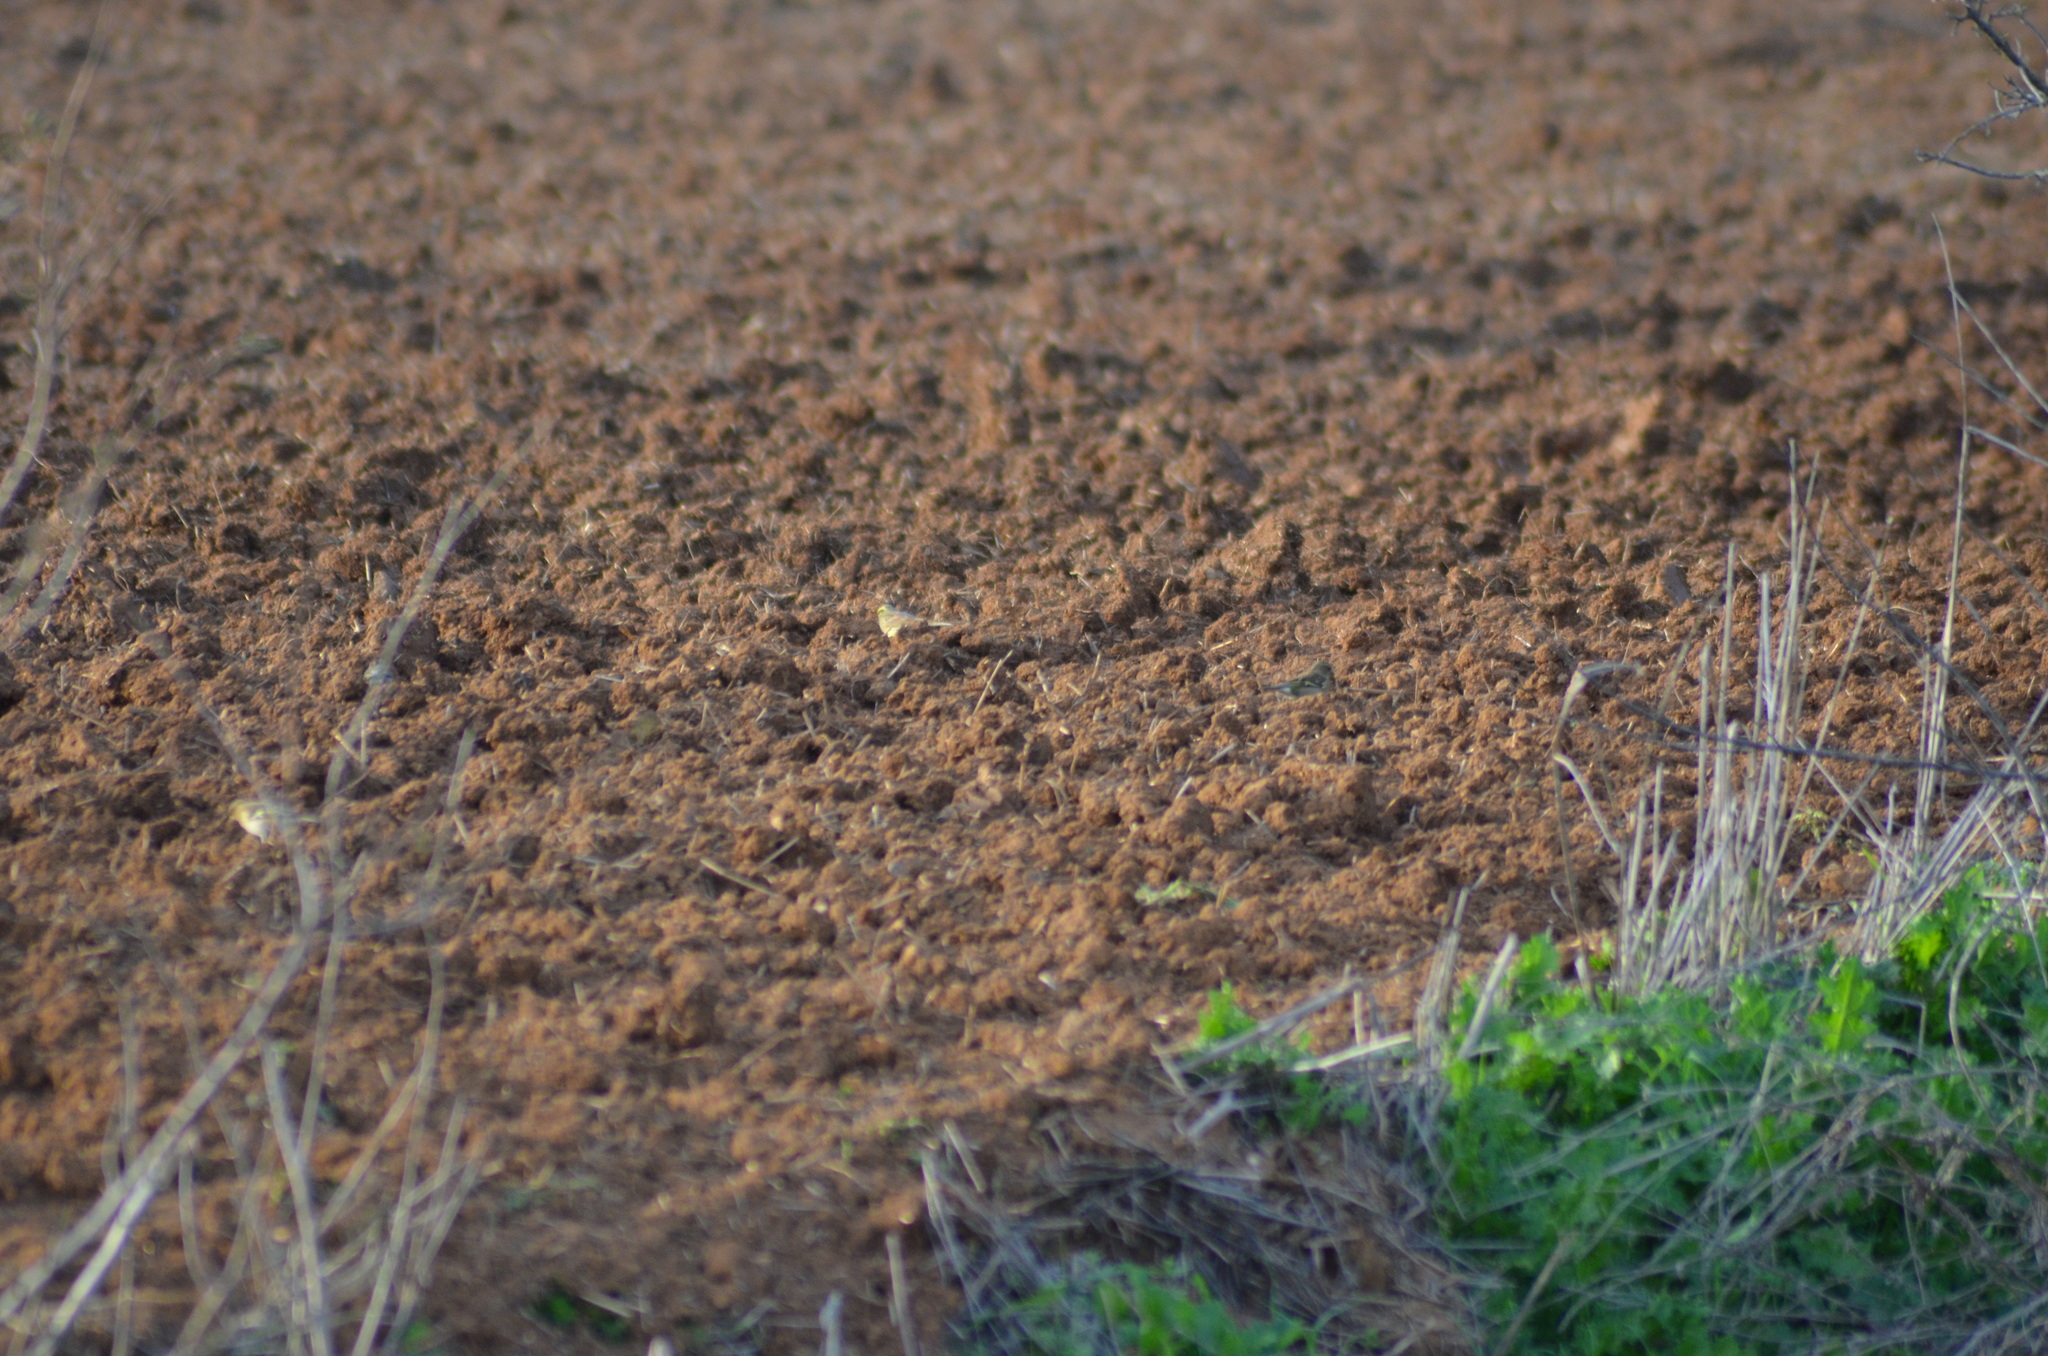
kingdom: Animalia
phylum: Chordata
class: Aves
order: Passeriformes
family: Emberizidae
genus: Emberiza
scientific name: Emberiza cirlus
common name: Cirl bunting
